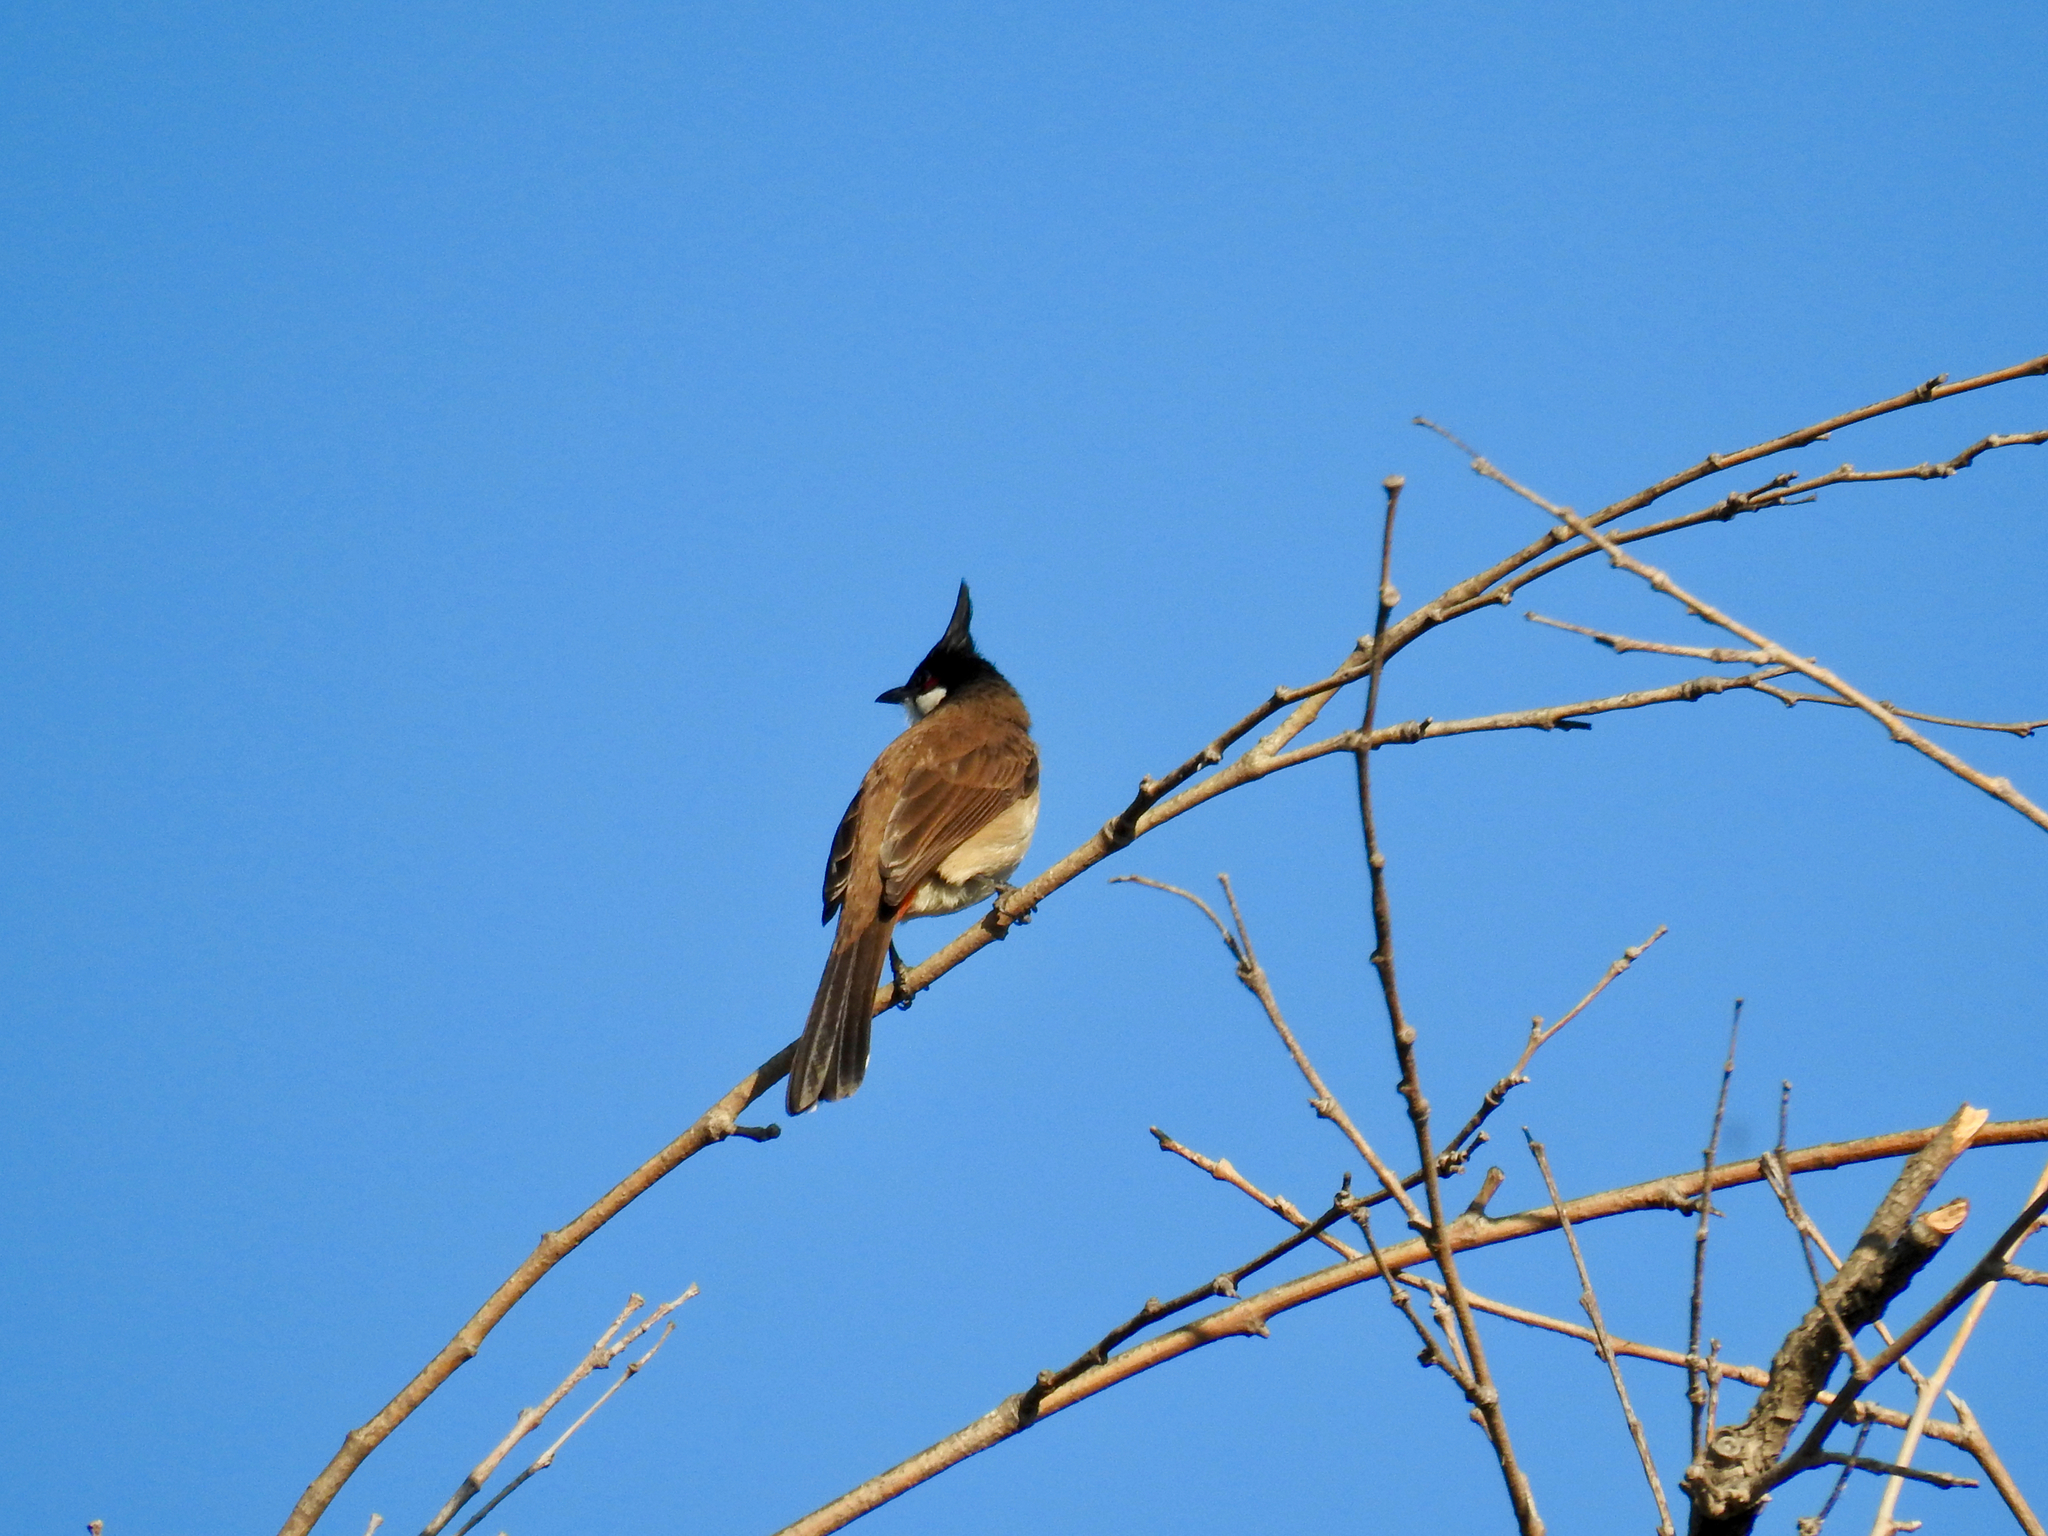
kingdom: Animalia
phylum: Chordata
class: Aves
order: Passeriformes
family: Pycnonotidae
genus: Pycnonotus
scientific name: Pycnonotus jocosus
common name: Red-whiskered bulbul
